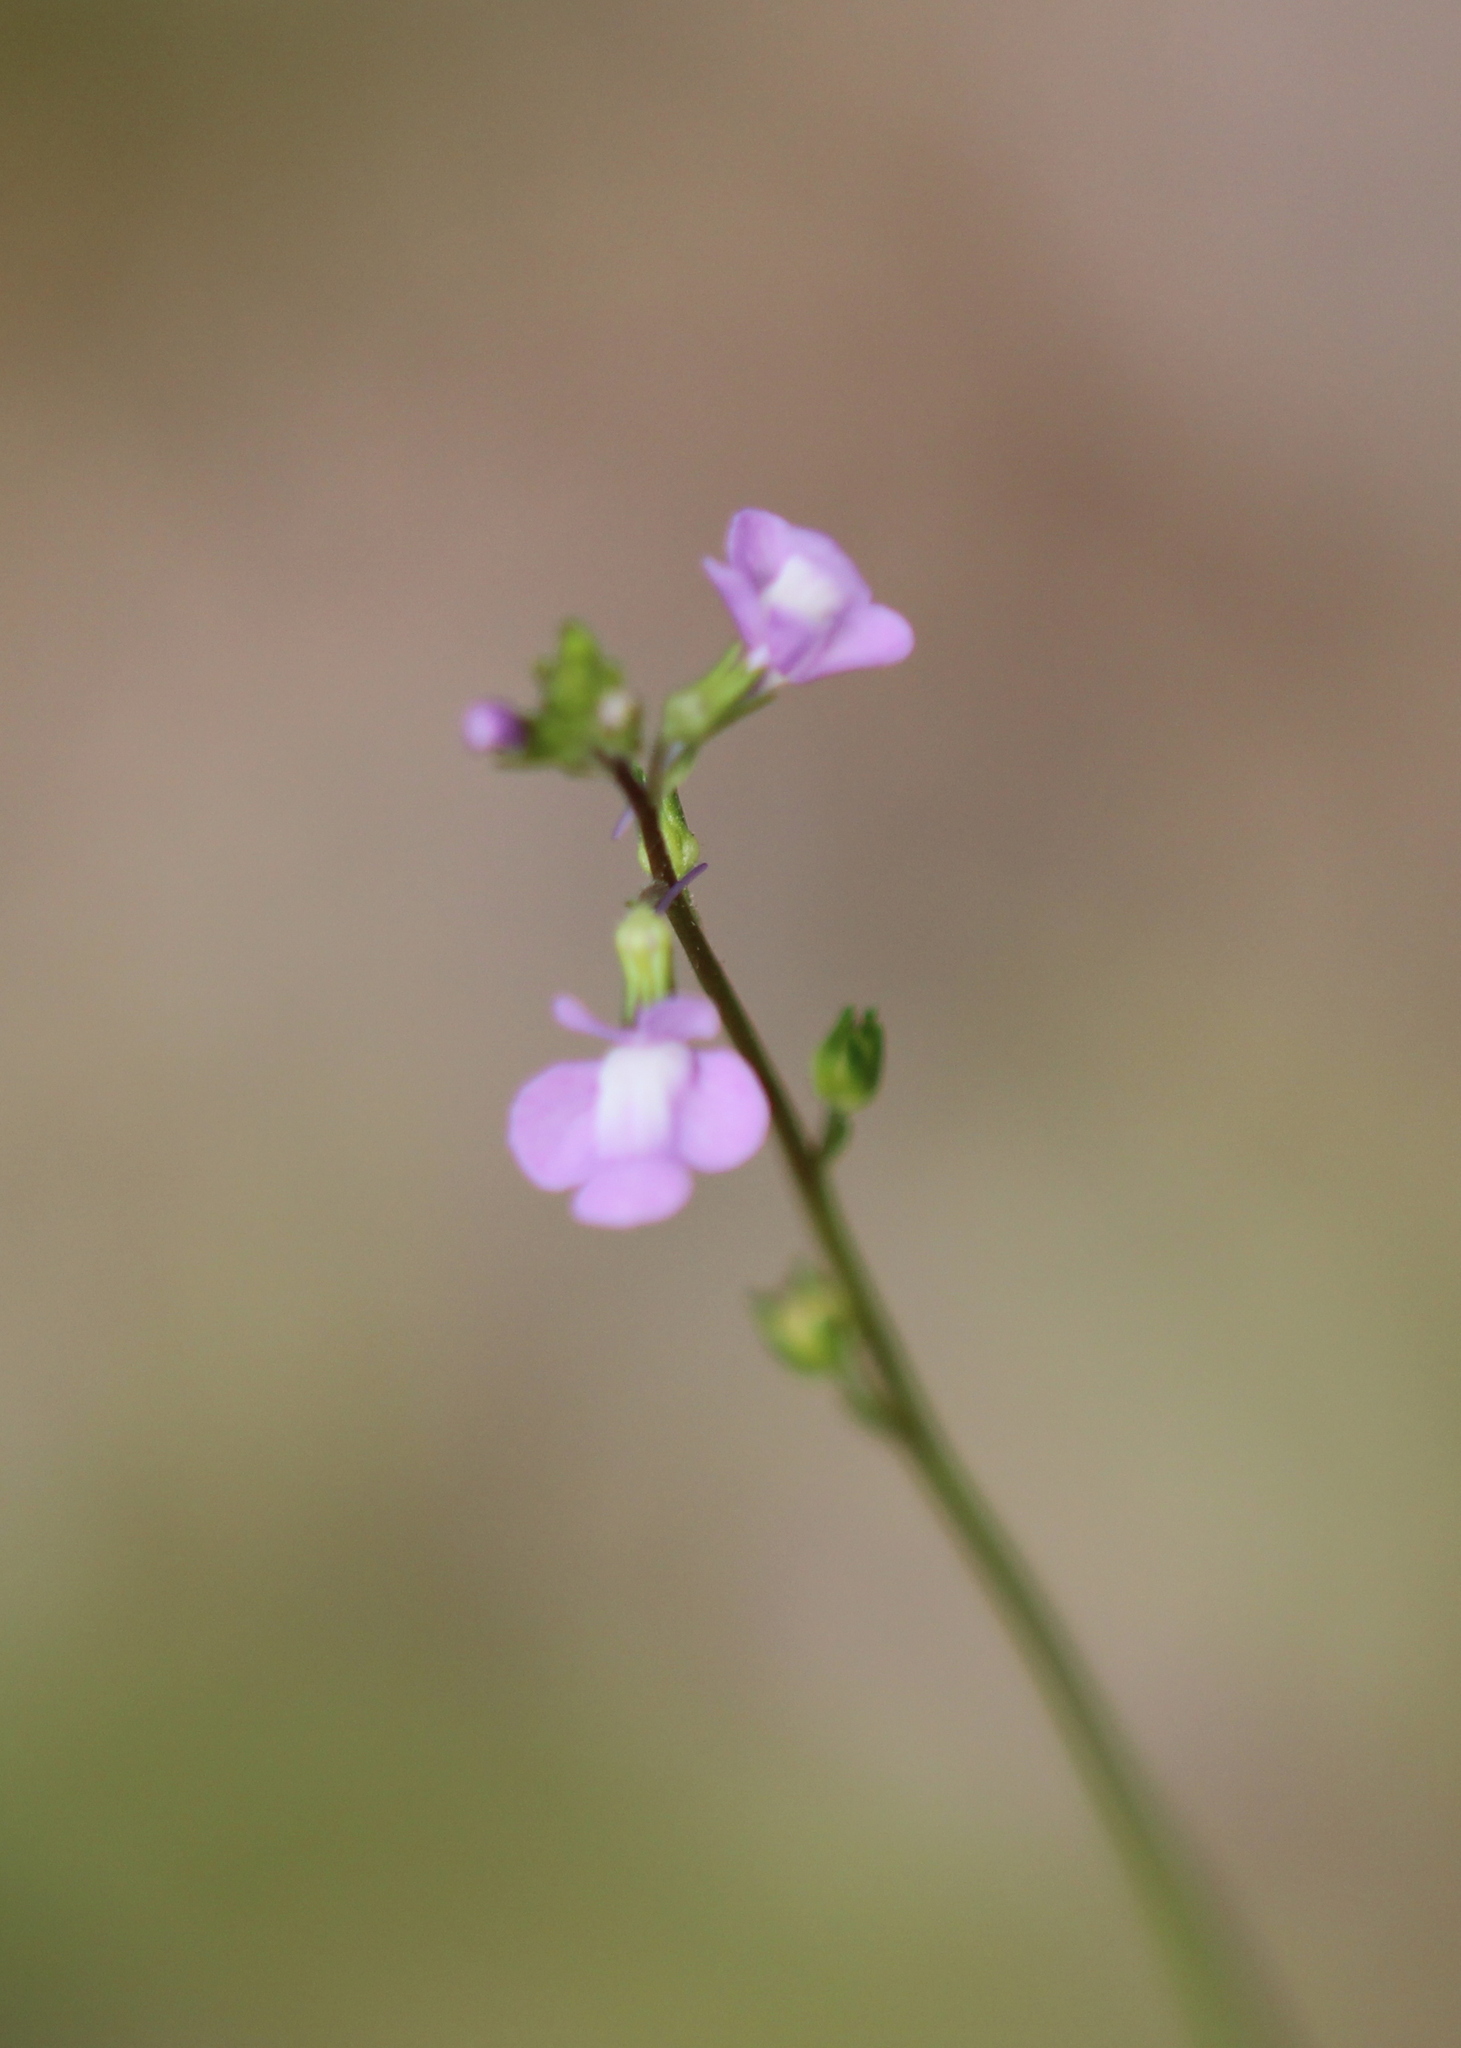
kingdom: Plantae
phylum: Tracheophyta
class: Magnoliopsida
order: Lamiales
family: Plantaginaceae
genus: Nuttallanthus
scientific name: Nuttallanthus canadensis
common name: Blue toadflax
